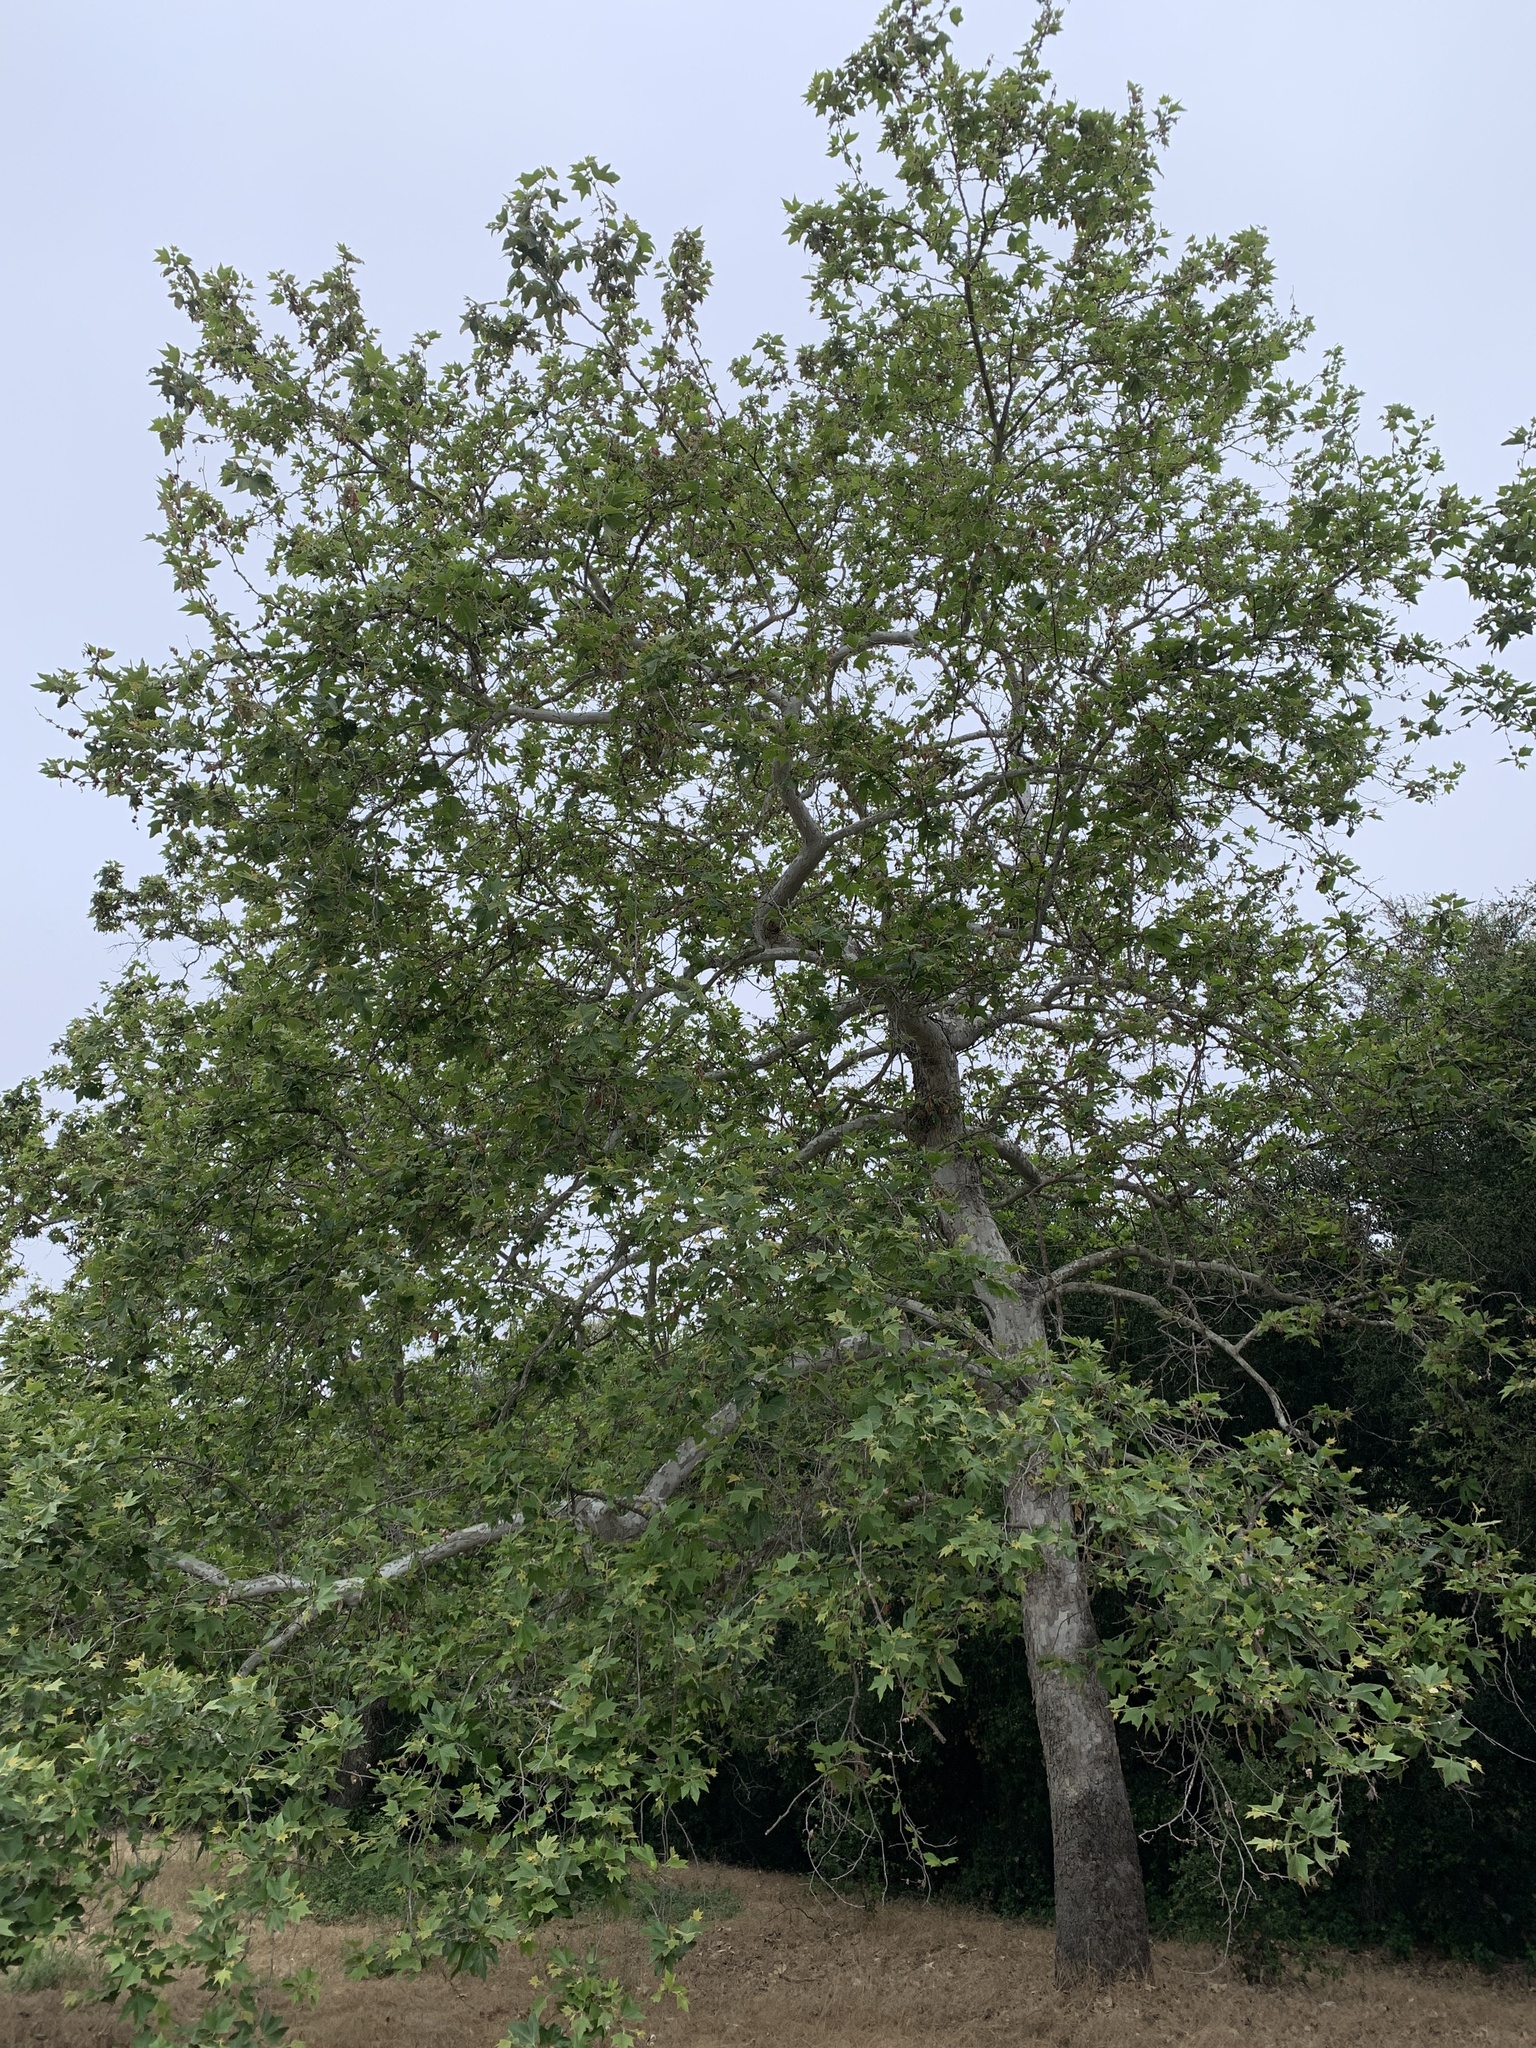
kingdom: Plantae
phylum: Tracheophyta
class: Magnoliopsida
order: Proteales
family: Platanaceae
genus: Platanus
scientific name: Platanus racemosa
